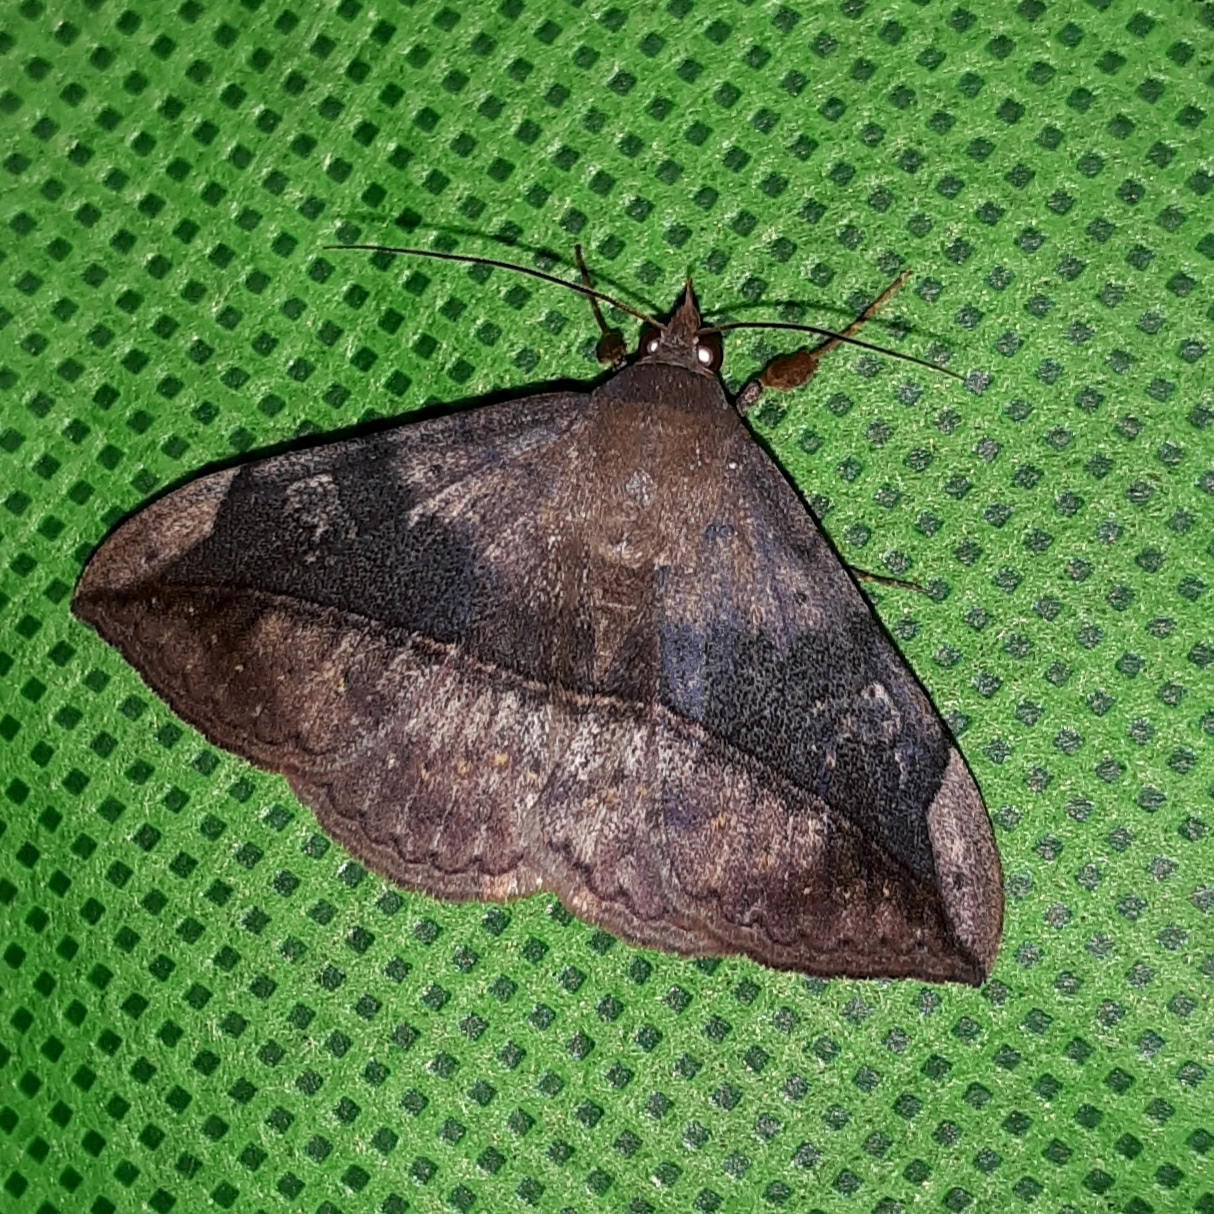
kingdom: Animalia
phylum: Arthropoda
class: Insecta
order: Lepidoptera
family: Erebidae
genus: Anticarsia
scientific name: Anticarsia gemmatalis
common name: Cutworm moth
